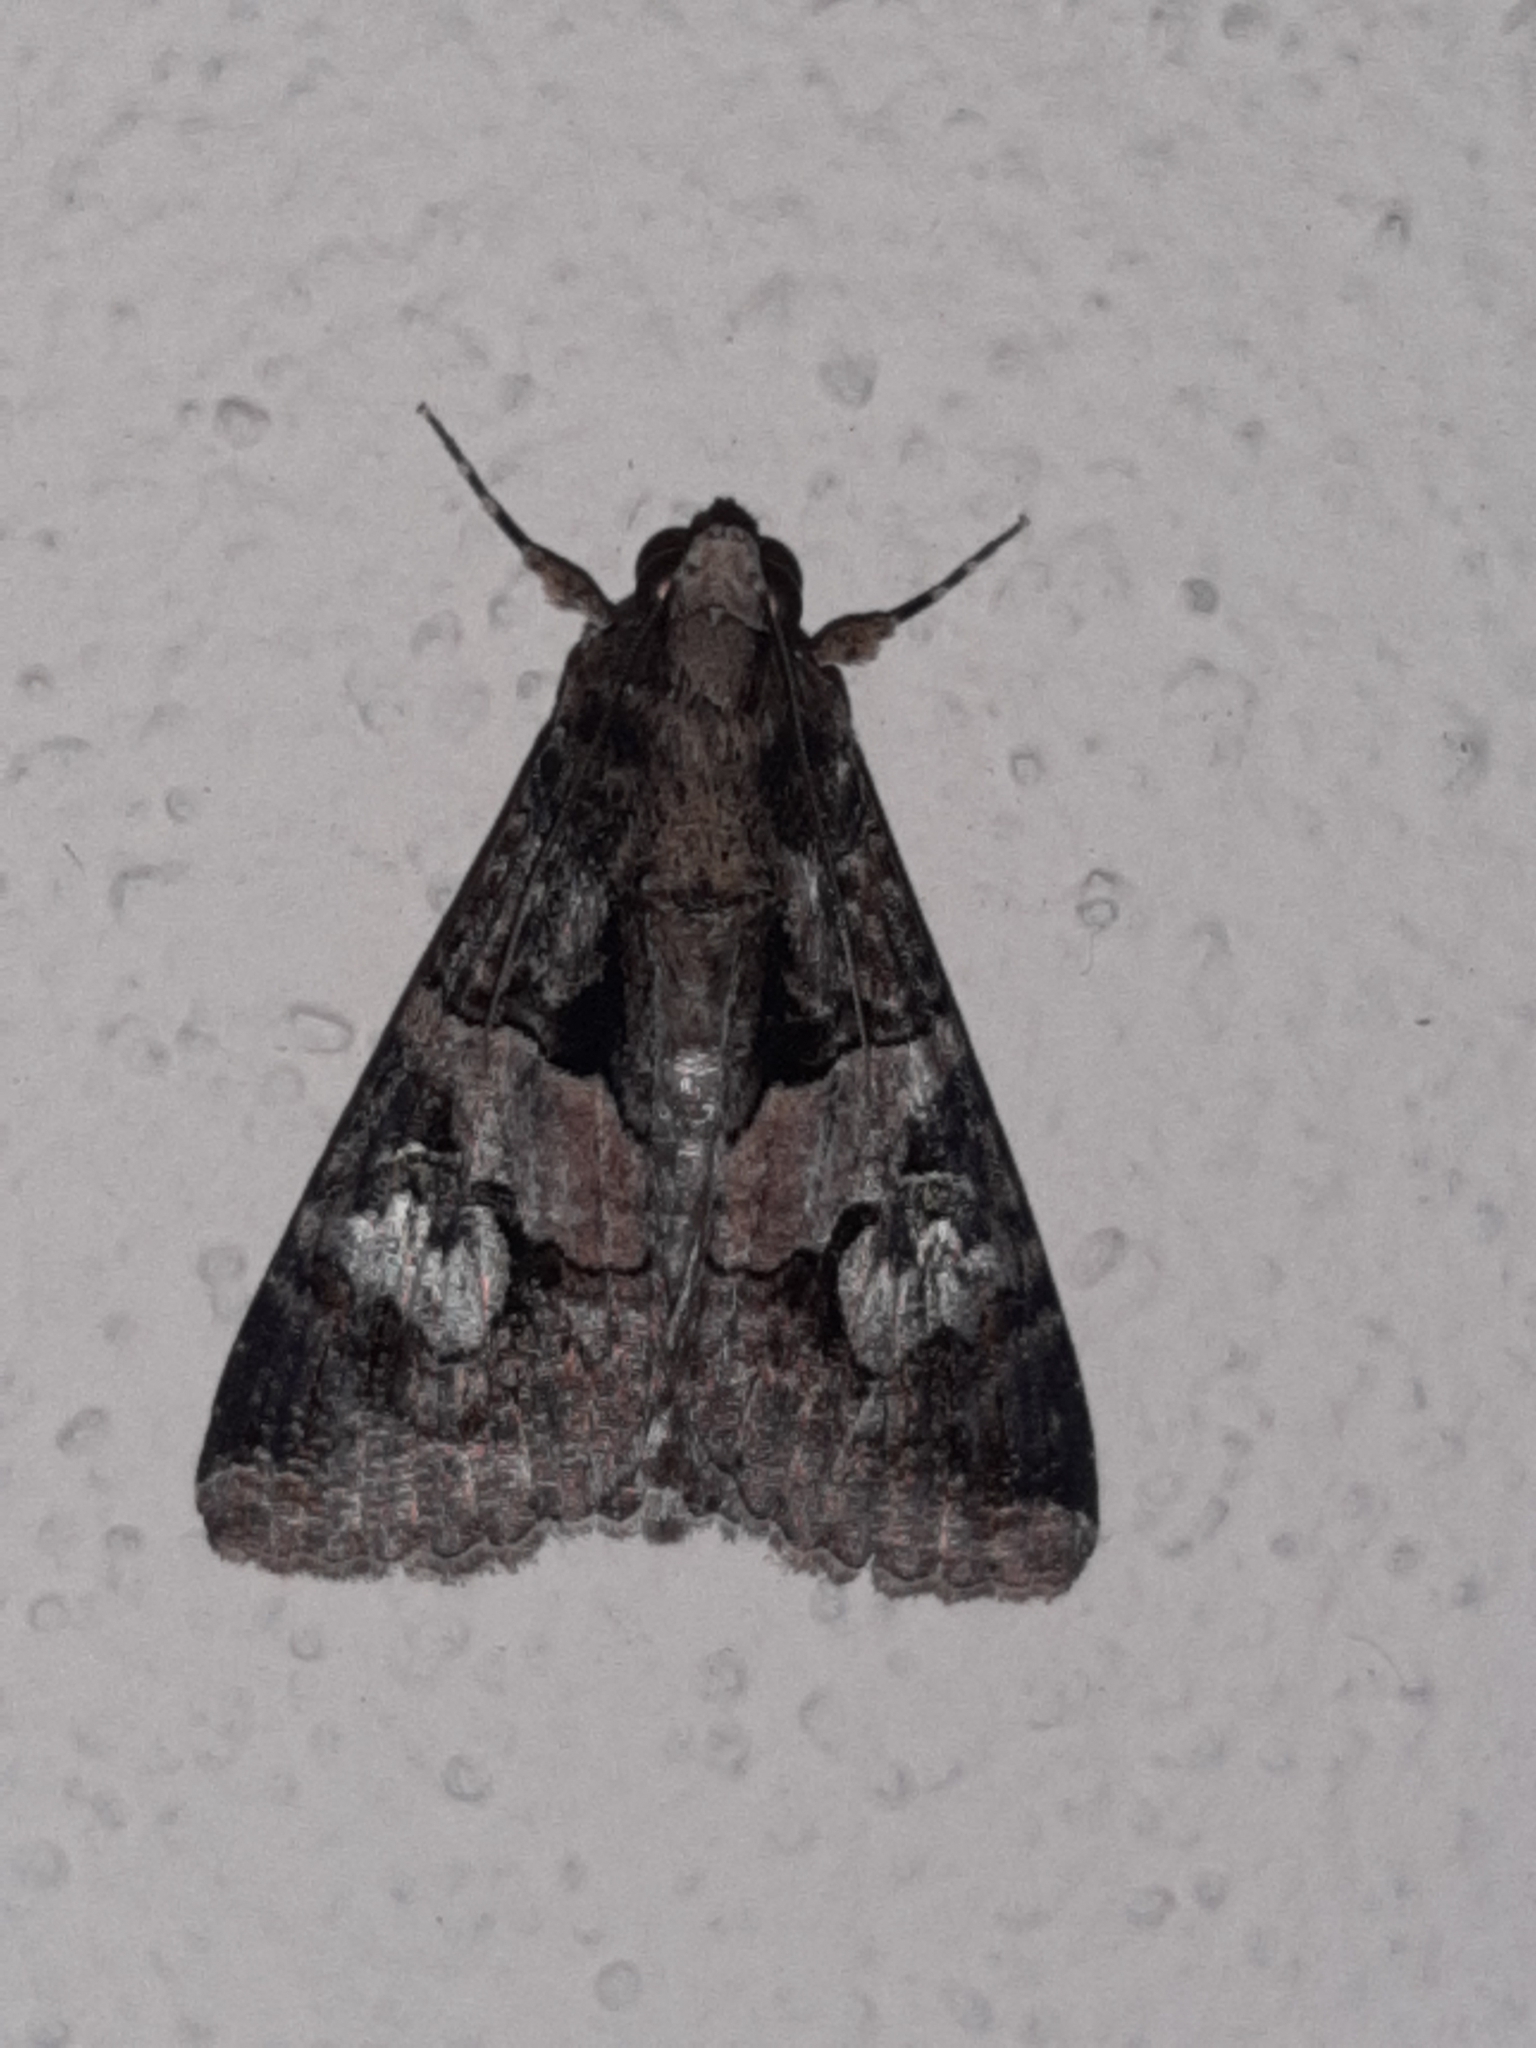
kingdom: Animalia
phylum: Arthropoda
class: Insecta
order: Lepidoptera
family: Erebidae
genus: Melipotis
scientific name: Melipotis famelica
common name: Famelica melipotis moth
